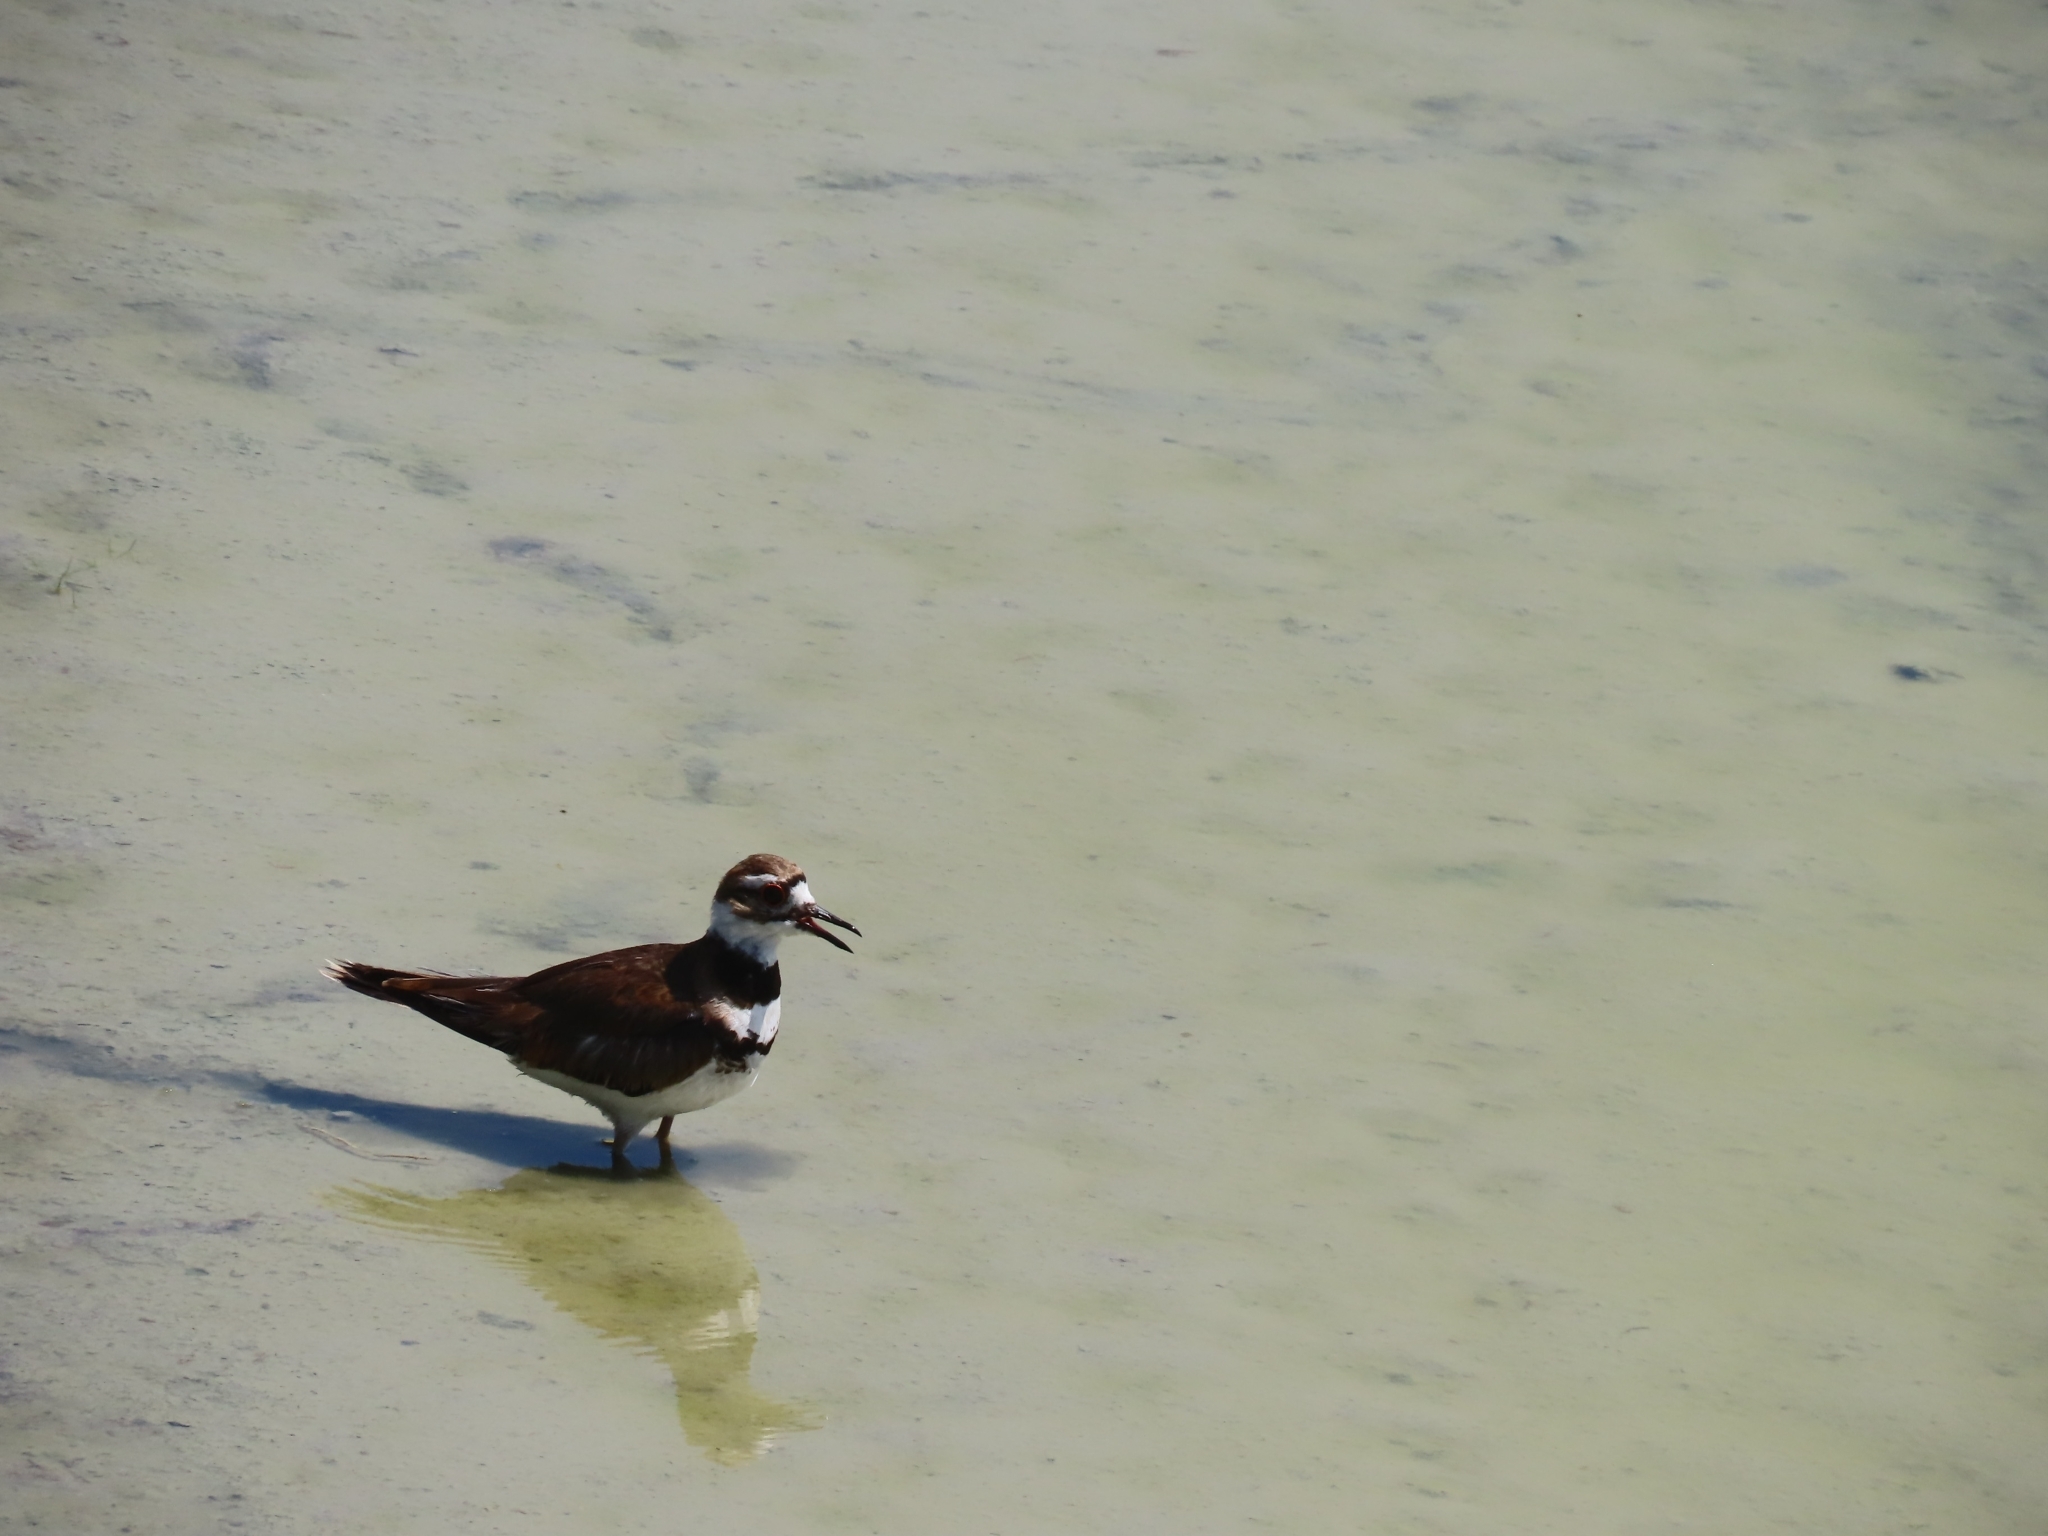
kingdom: Animalia
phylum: Chordata
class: Aves
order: Charadriiformes
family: Charadriidae
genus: Charadrius
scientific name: Charadrius vociferus
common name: Killdeer
